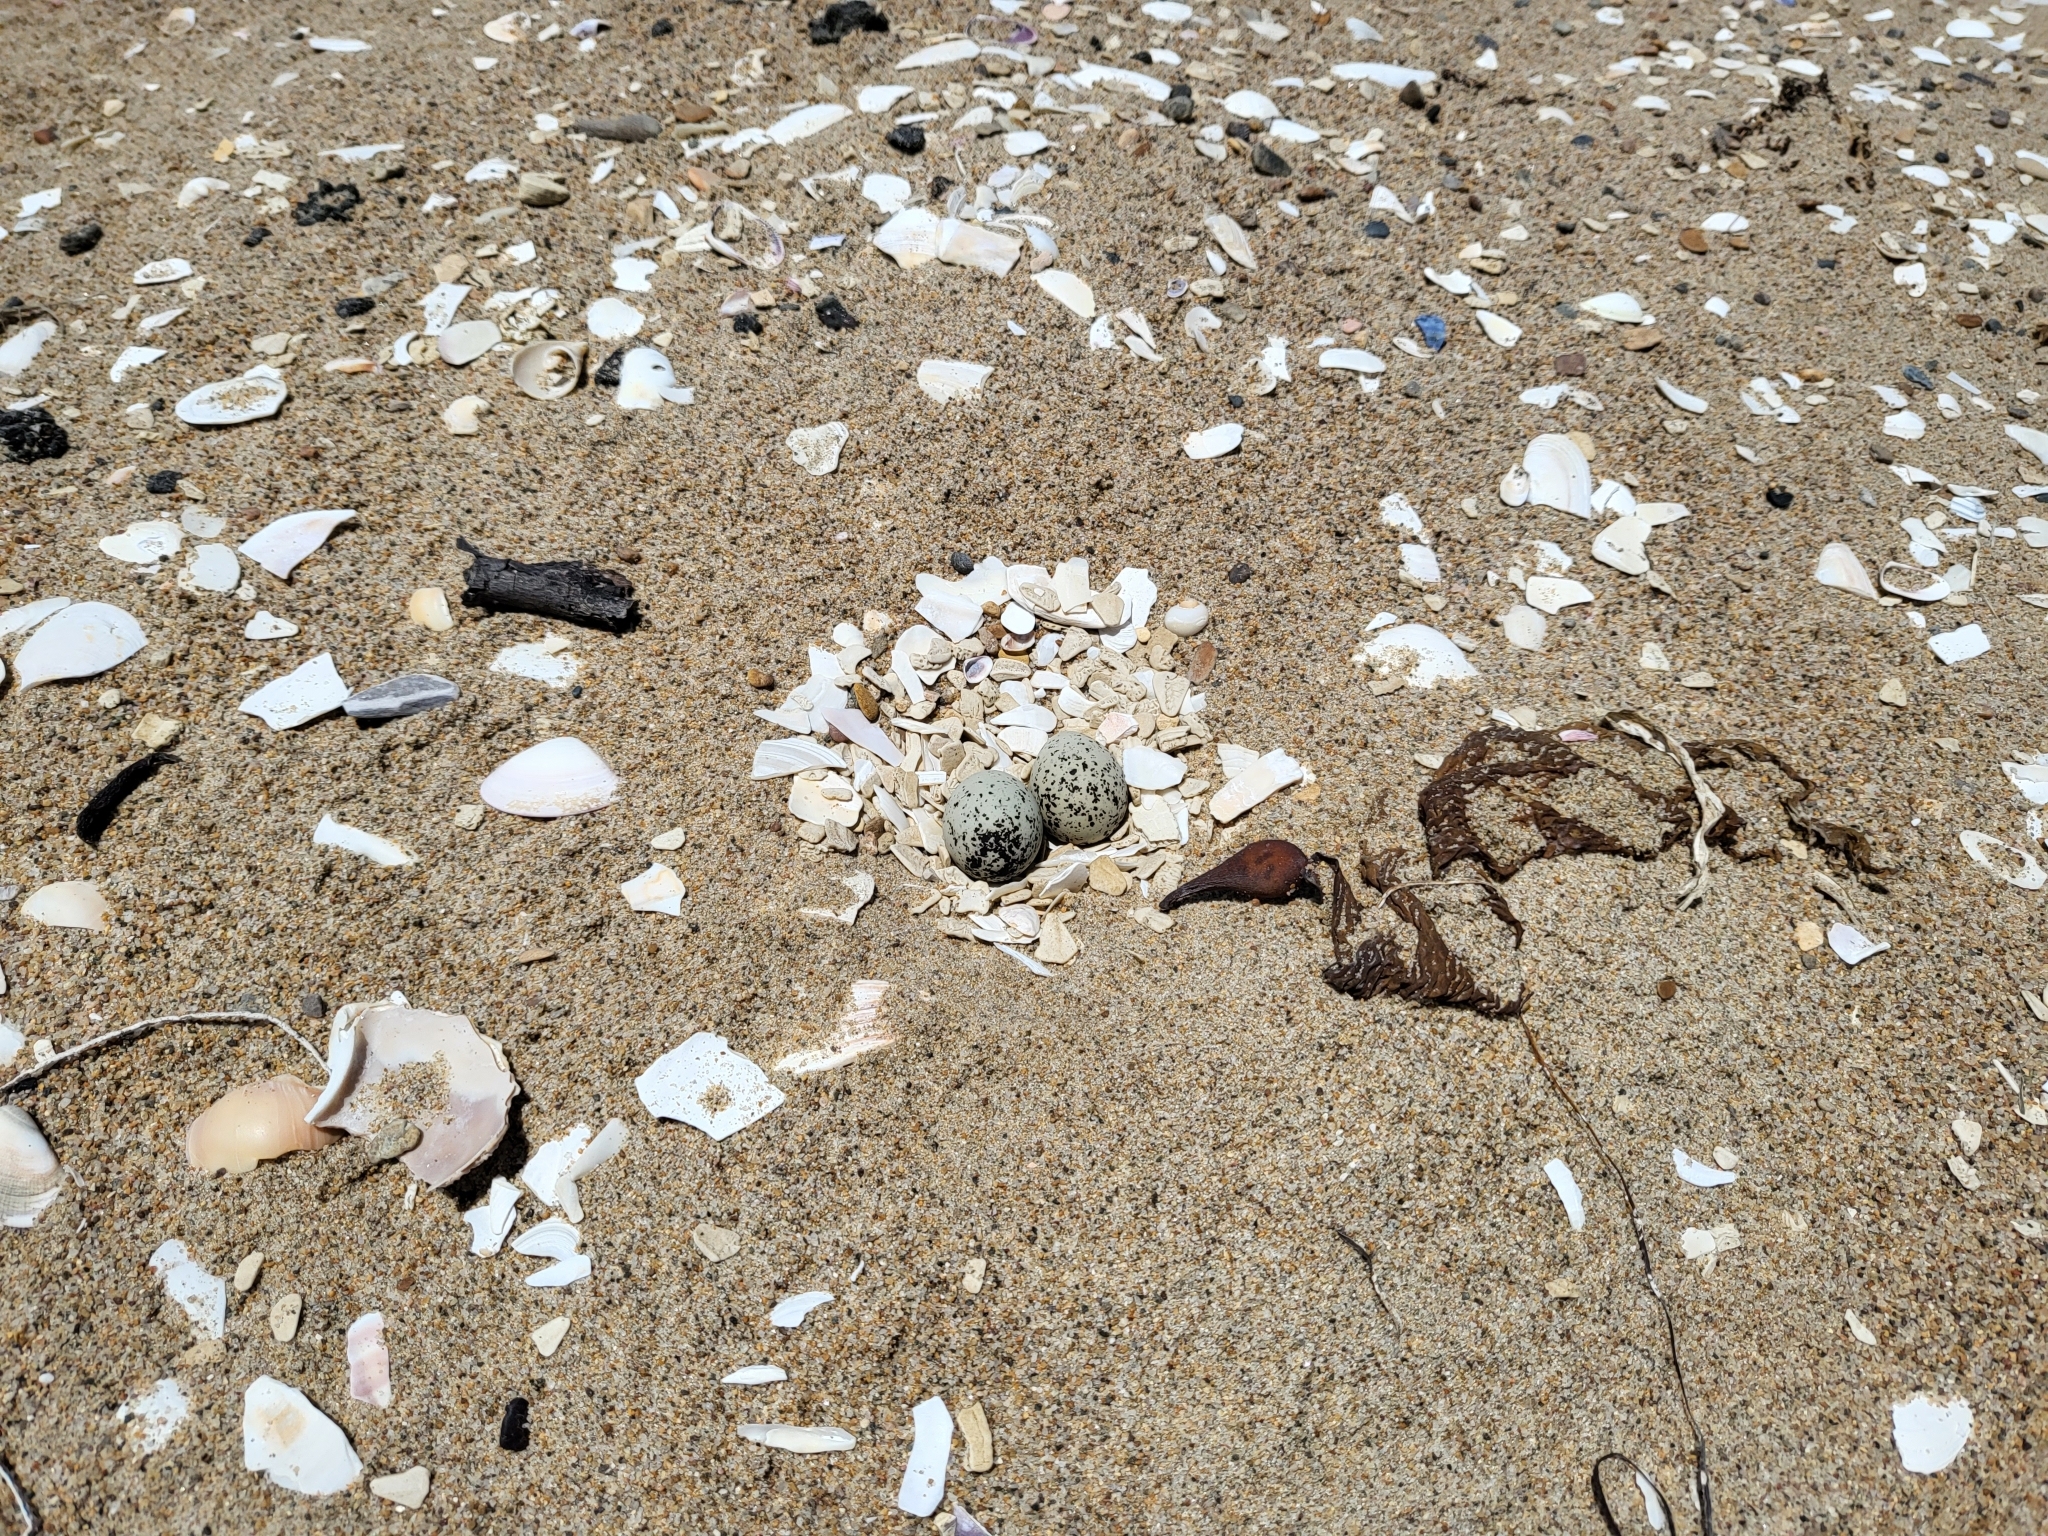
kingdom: Animalia
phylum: Chordata
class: Aves
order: Charadriiformes
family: Charadriidae
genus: Anarhynchus
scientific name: Anarhynchus
